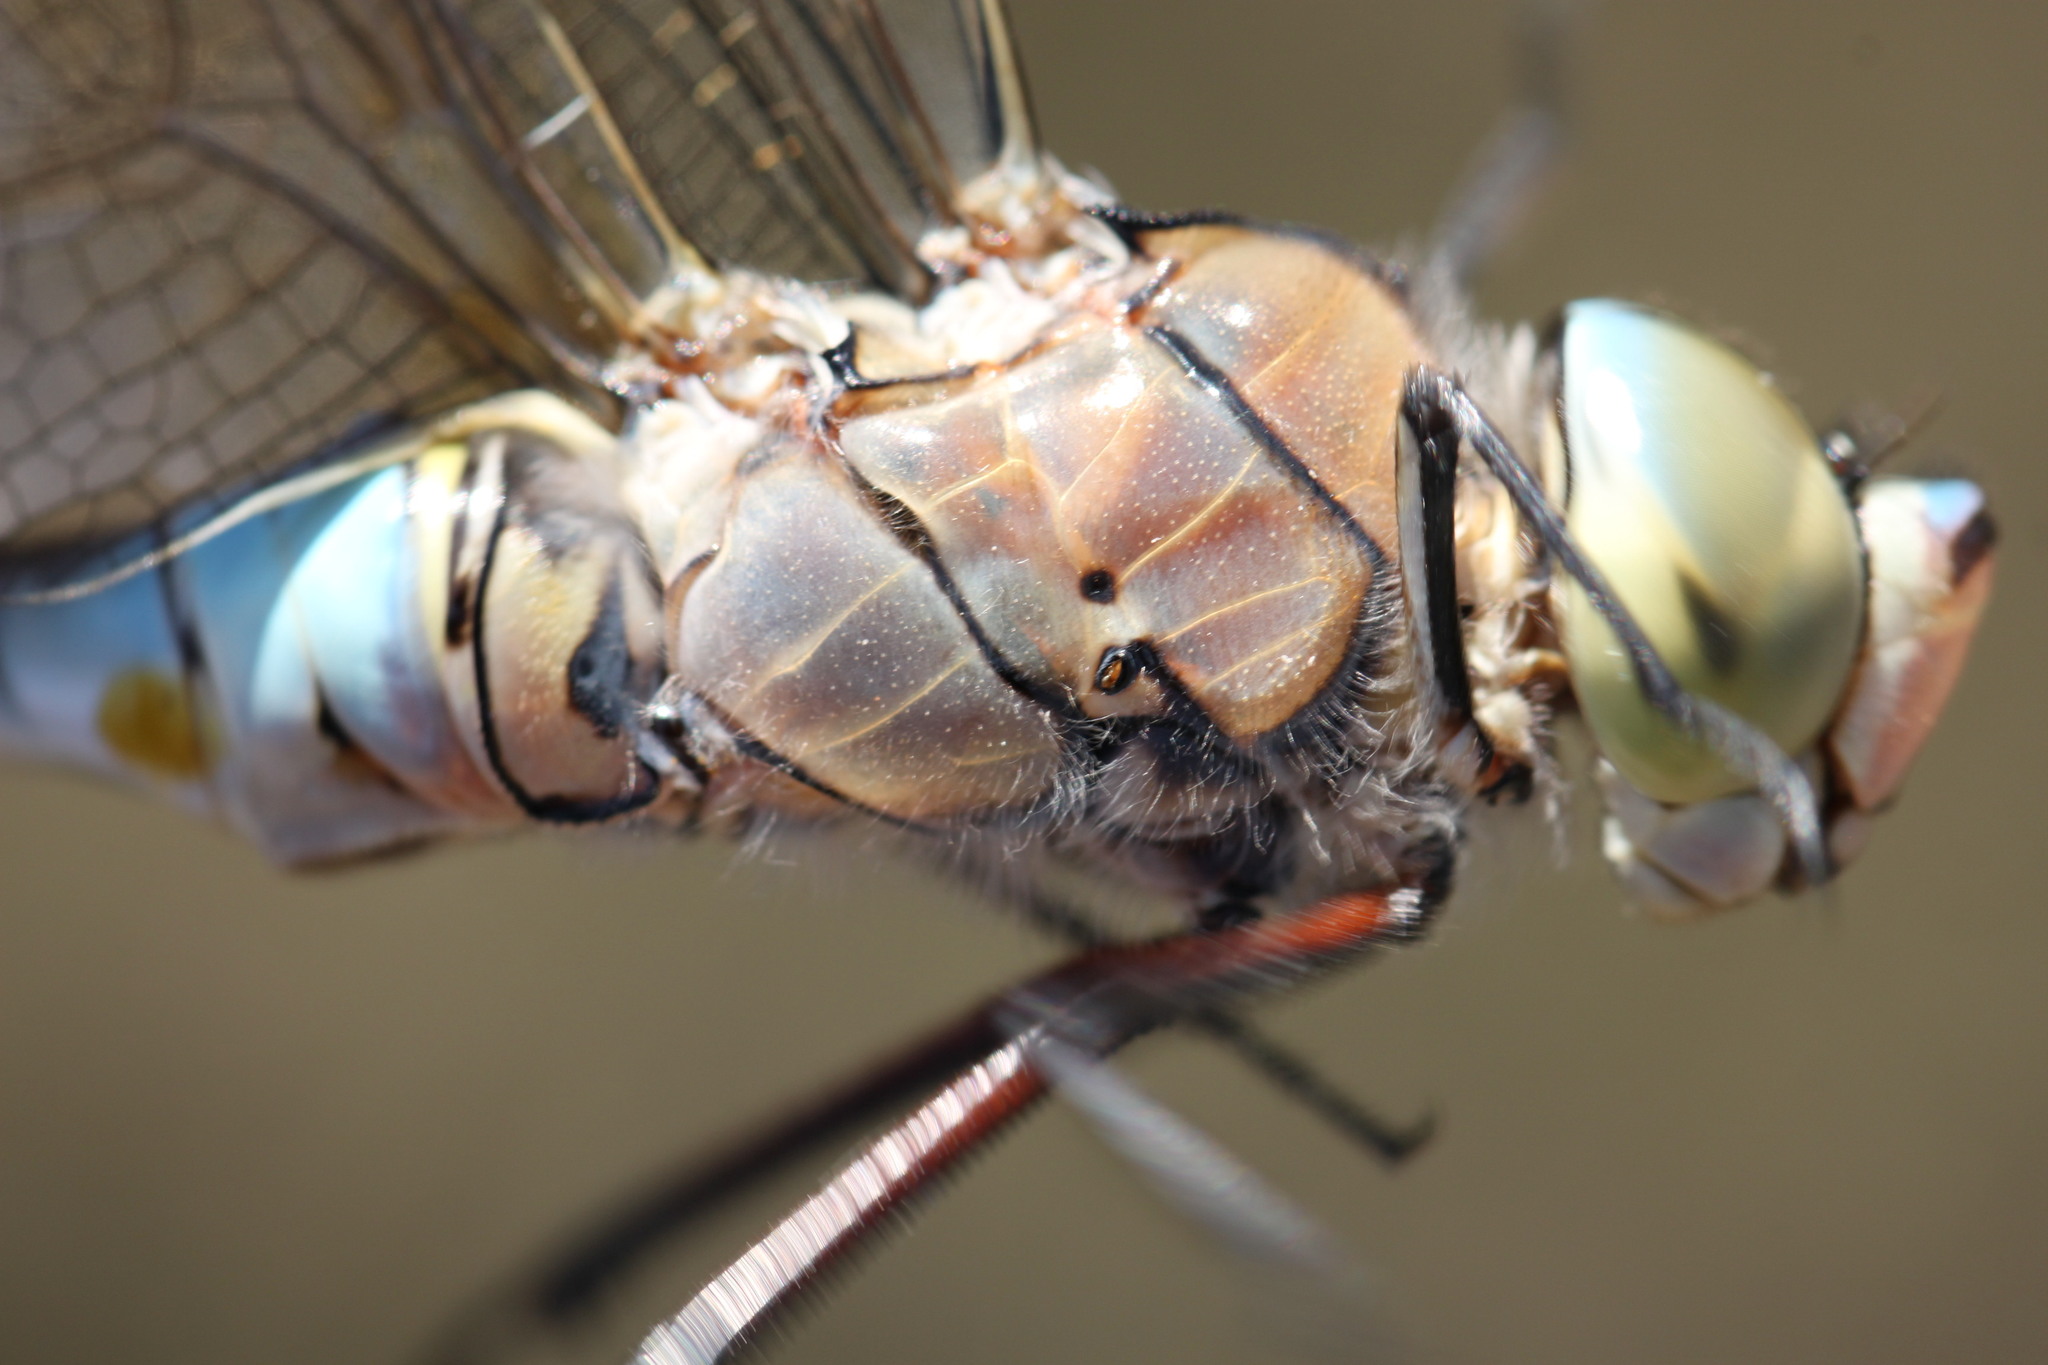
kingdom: Animalia
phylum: Arthropoda
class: Insecta
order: Odonata
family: Aeshnidae
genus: Anax
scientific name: Anax parthenope
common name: Lesser emperor
